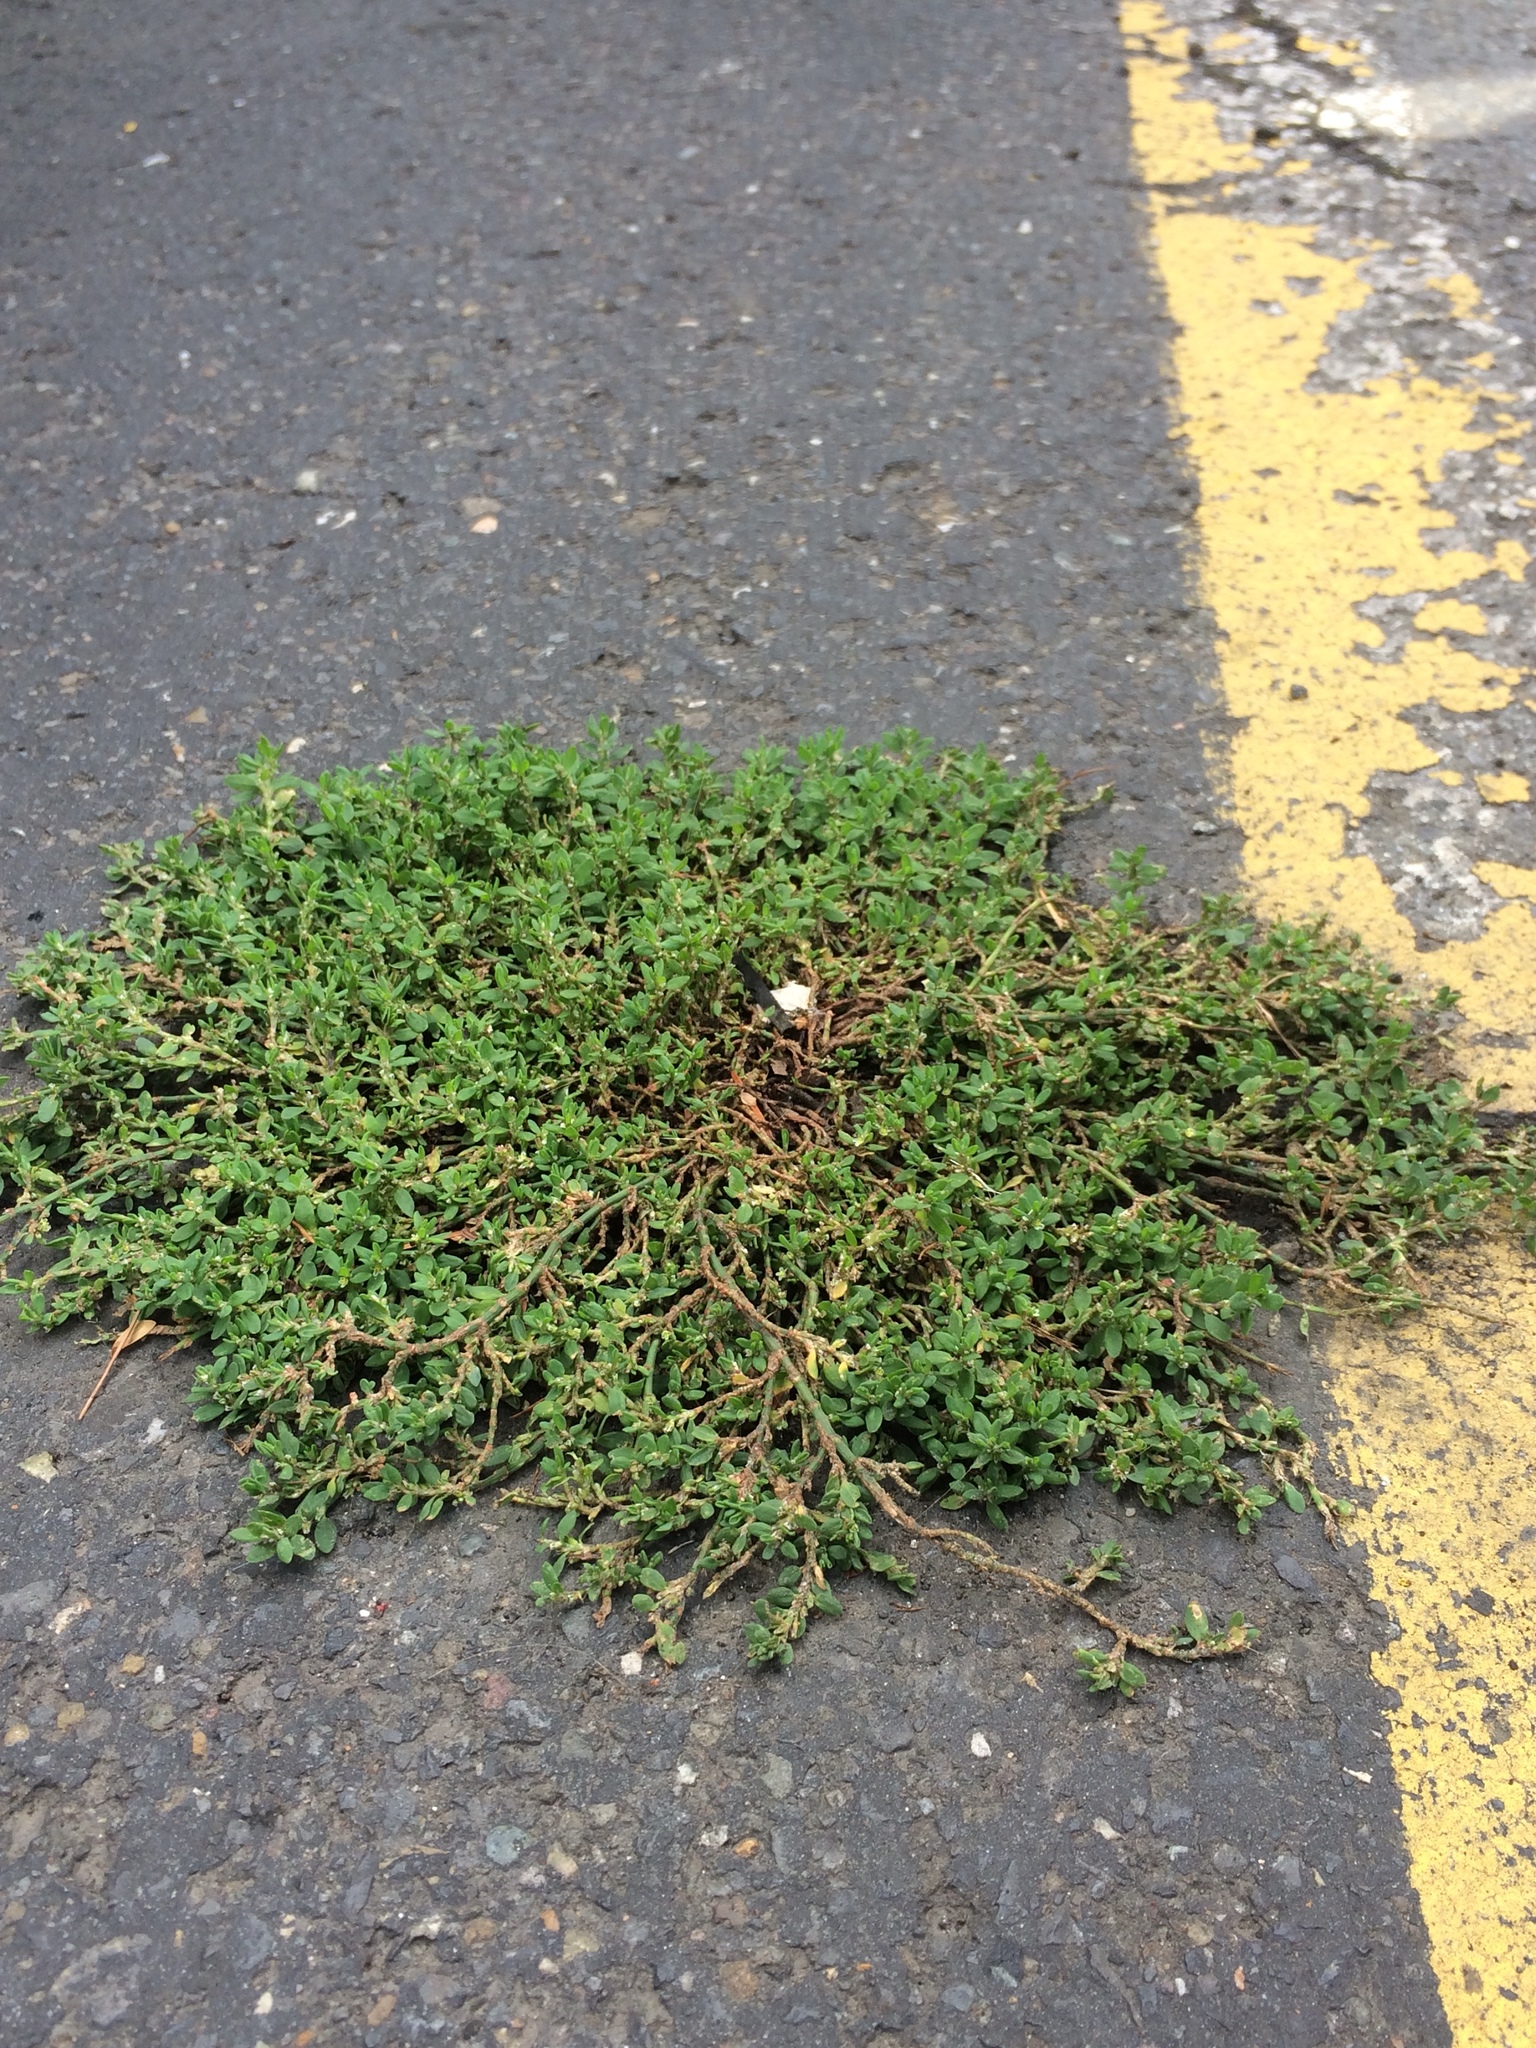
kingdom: Plantae
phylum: Tracheophyta
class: Magnoliopsida
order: Caryophyllales
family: Polygonaceae
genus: Polygonum
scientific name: Polygonum aviculare
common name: Prostrate knotweed
